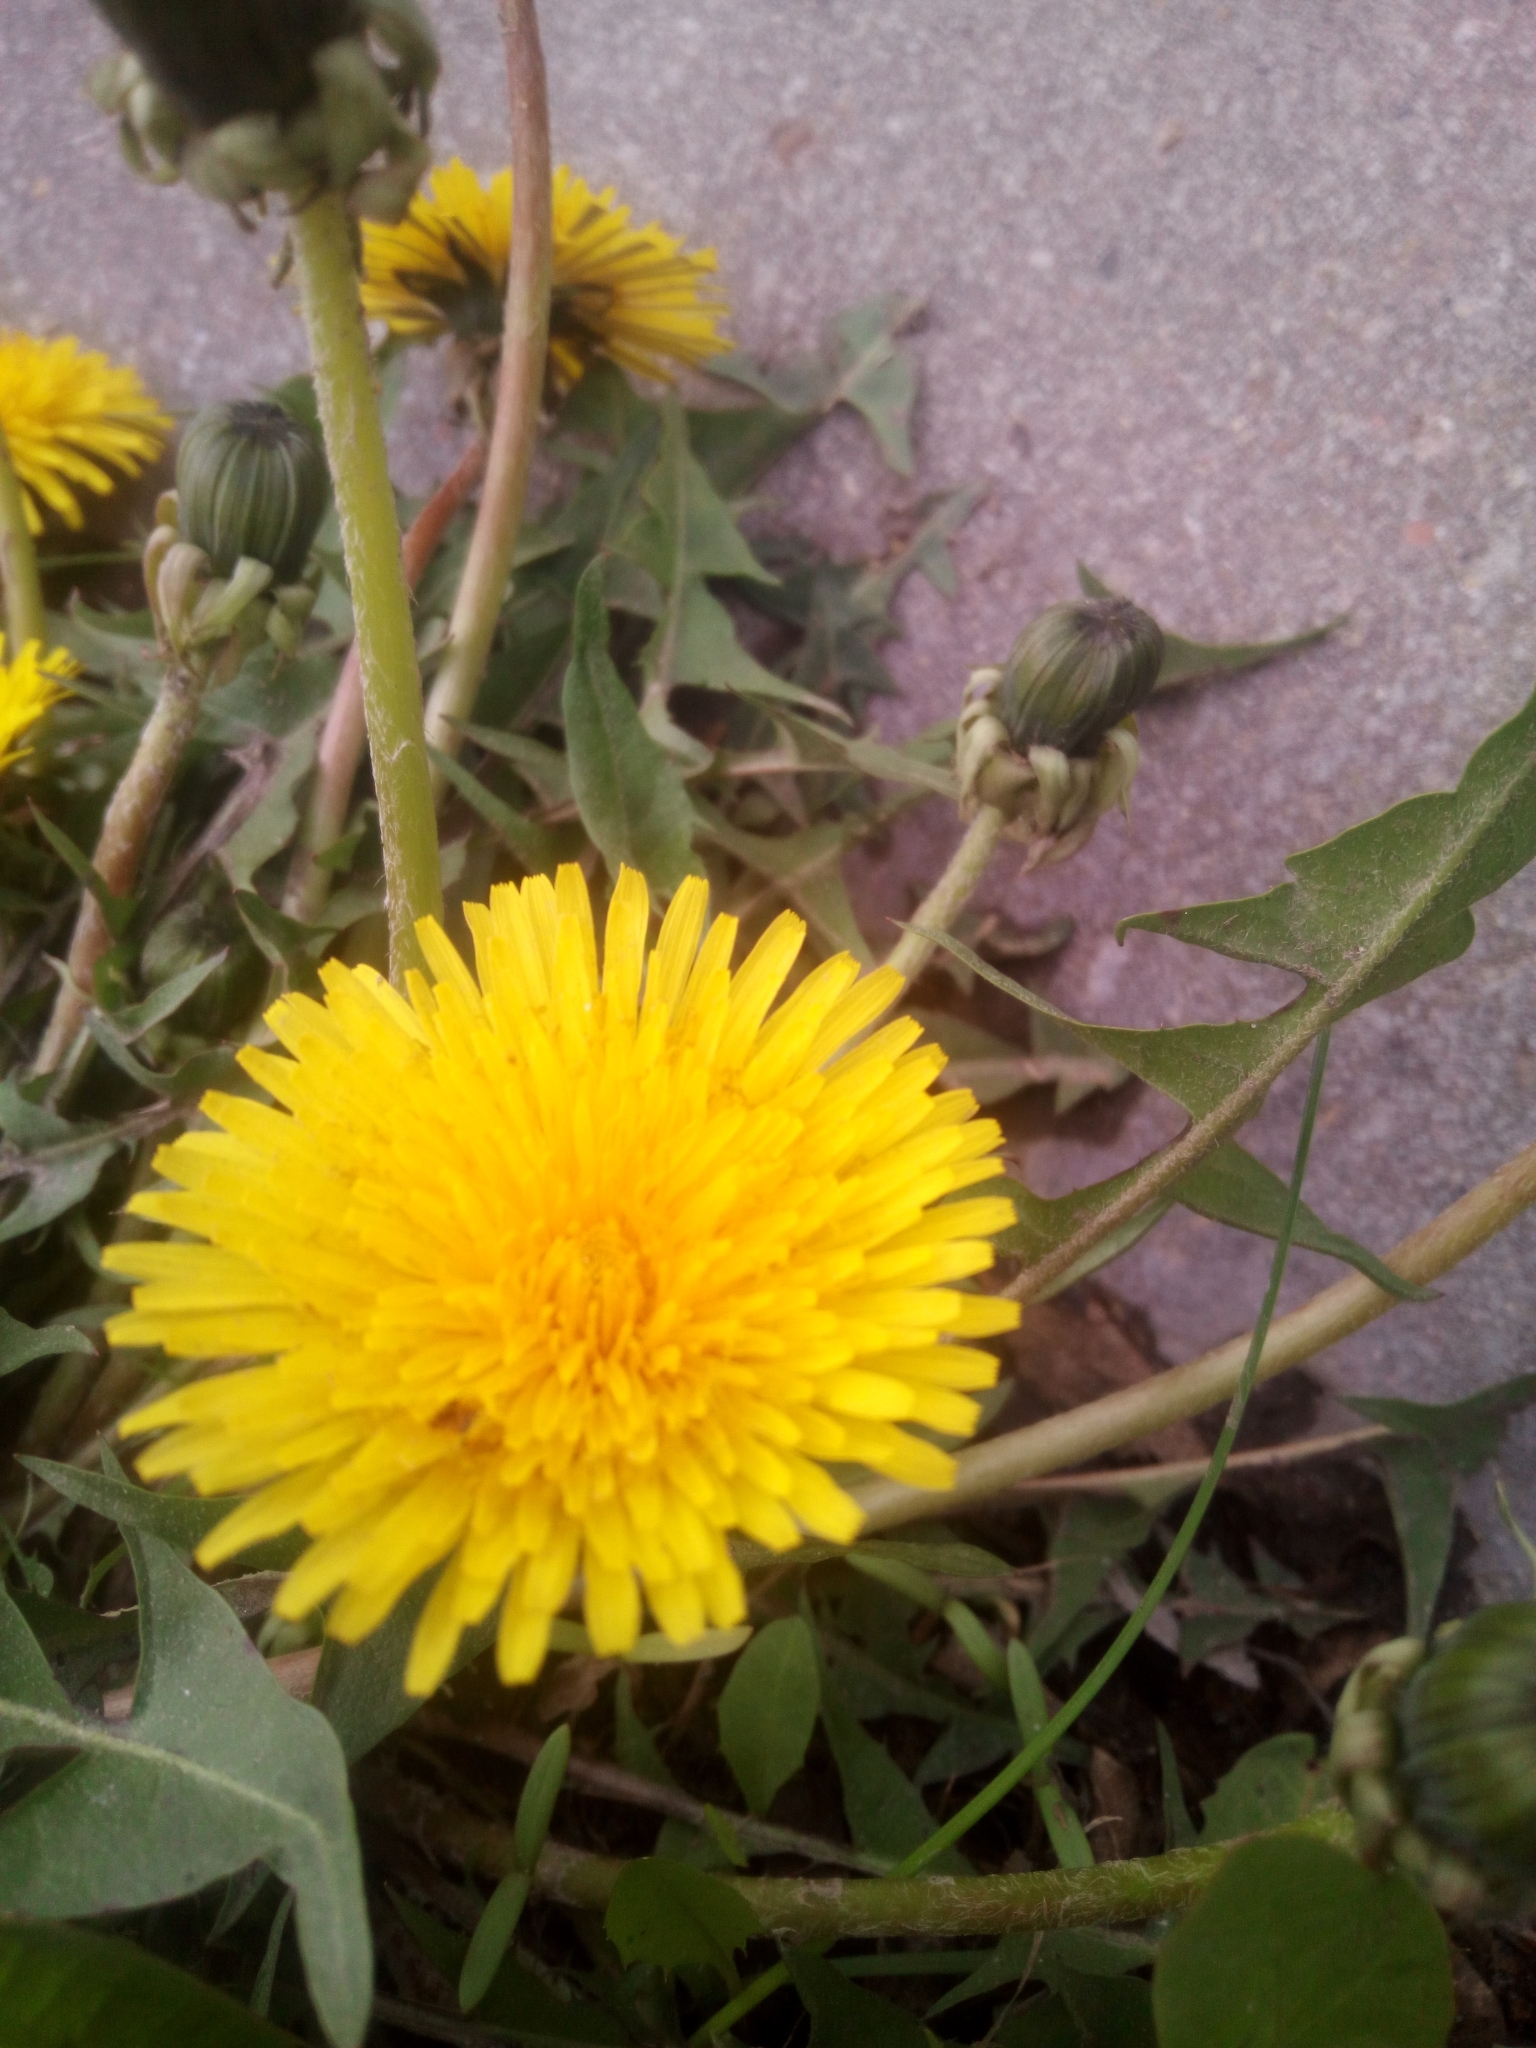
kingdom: Plantae
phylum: Tracheophyta
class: Magnoliopsida
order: Asterales
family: Asteraceae
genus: Taraxacum
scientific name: Taraxacum officinale
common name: Common dandelion
